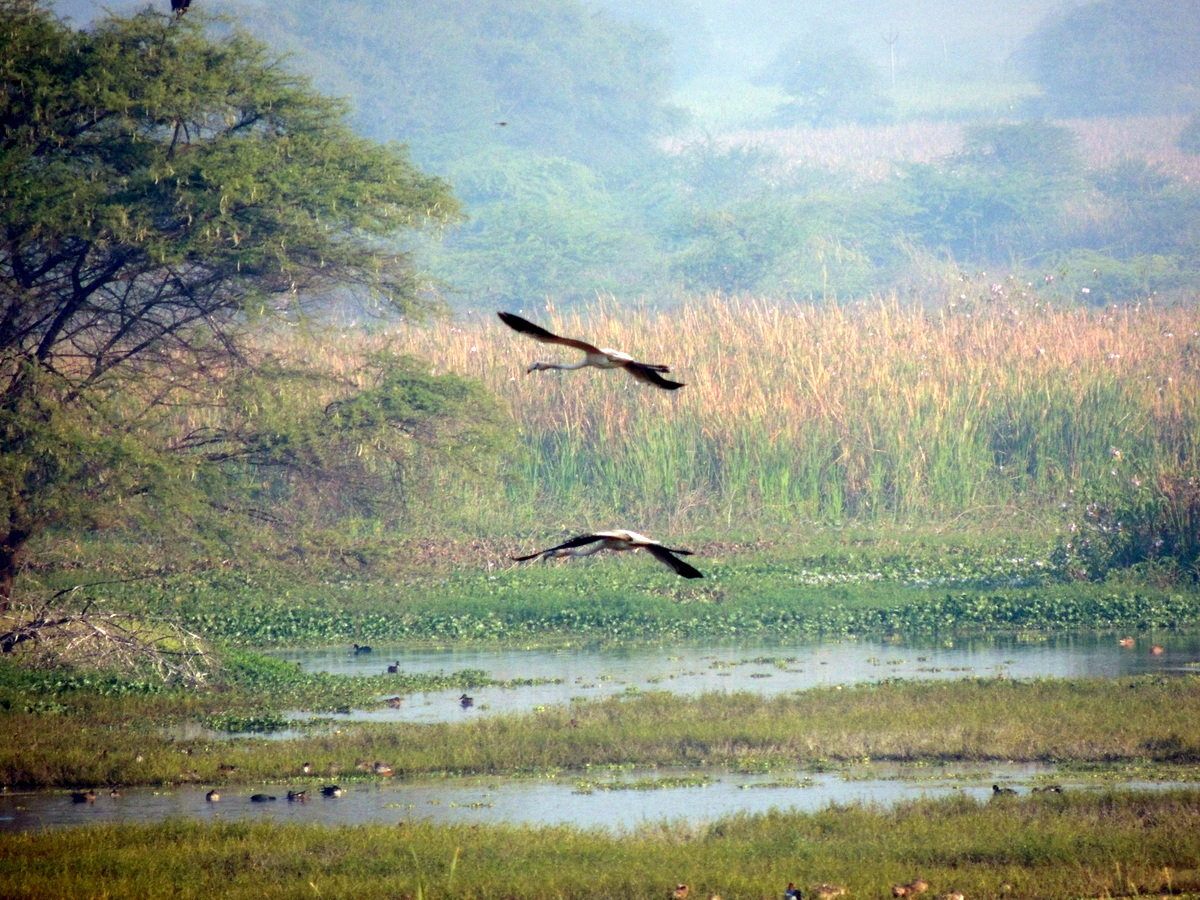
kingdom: Animalia
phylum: Chordata
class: Aves
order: Phoenicopteriformes
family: Phoenicopteridae
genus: Phoenicopterus
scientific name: Phoenicopterus roseus
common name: Greater flamingo
